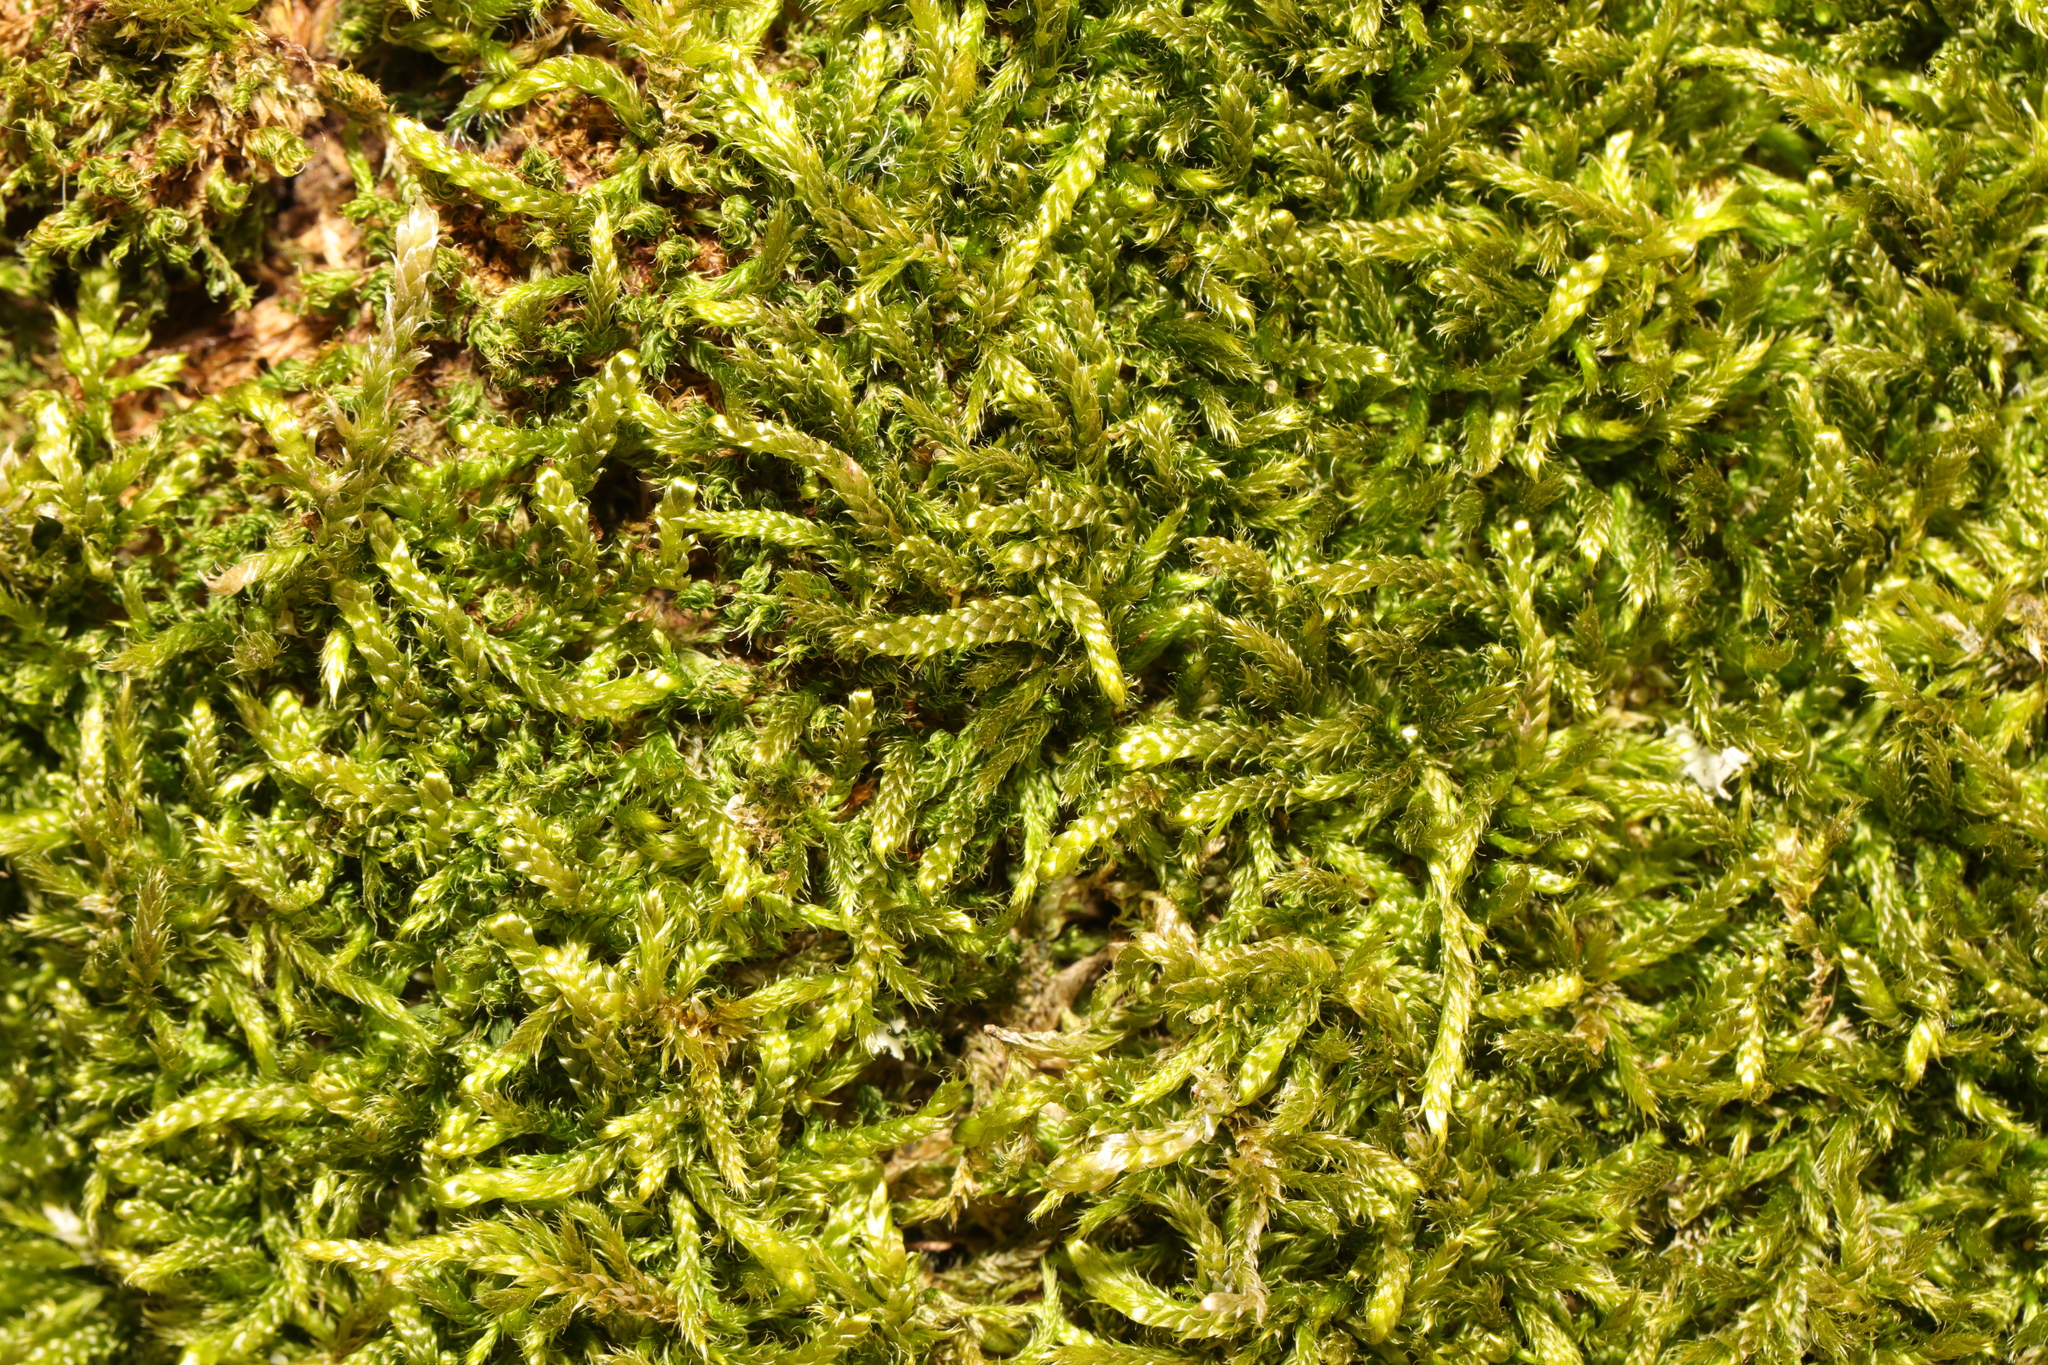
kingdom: Plantae
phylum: Bryophyta
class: Bryopsida
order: Hypnales
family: Hypnaceae
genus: Hypnum
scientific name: Hypnum cupressiforme
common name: Cypress-leaved plait-moss
